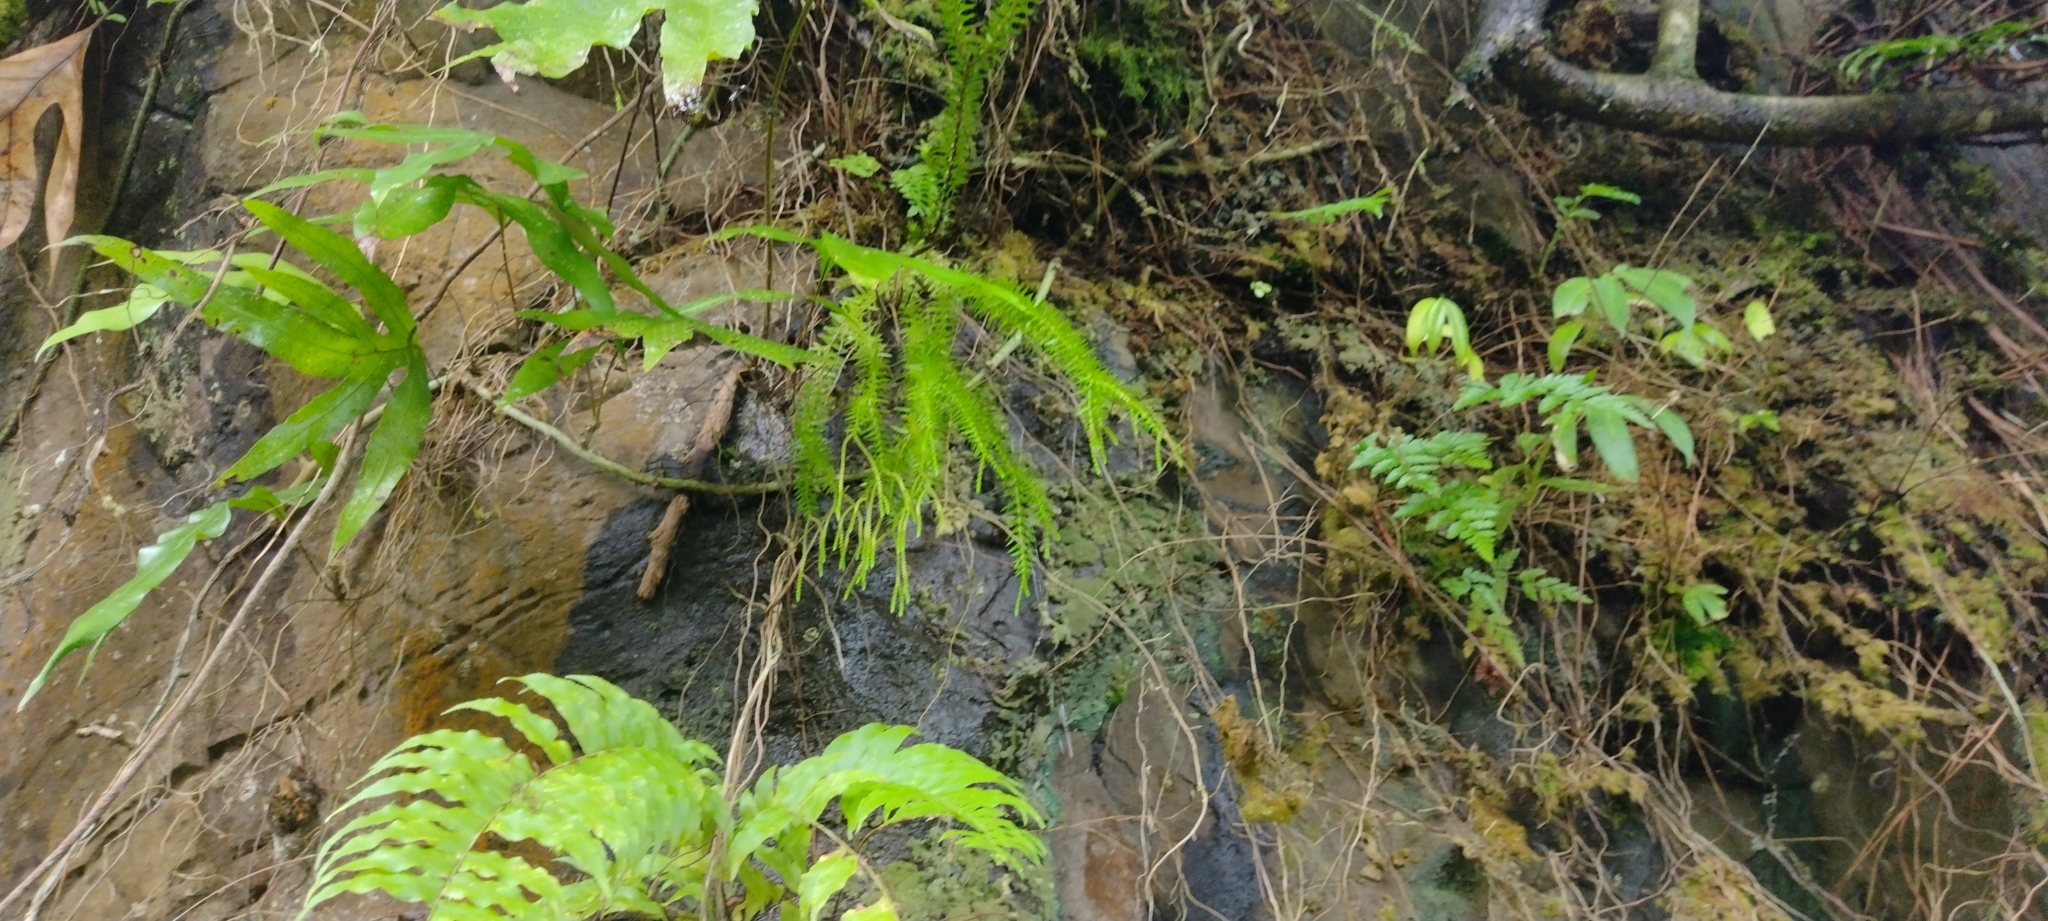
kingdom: Plantae
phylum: Tracheophyta
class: Lycopodiopsida
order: Lycopodiales
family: Lycopodiaceae
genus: Phlegmariurus
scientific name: Phlegmariurus phlegmaria
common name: Coarse tassel-fern
